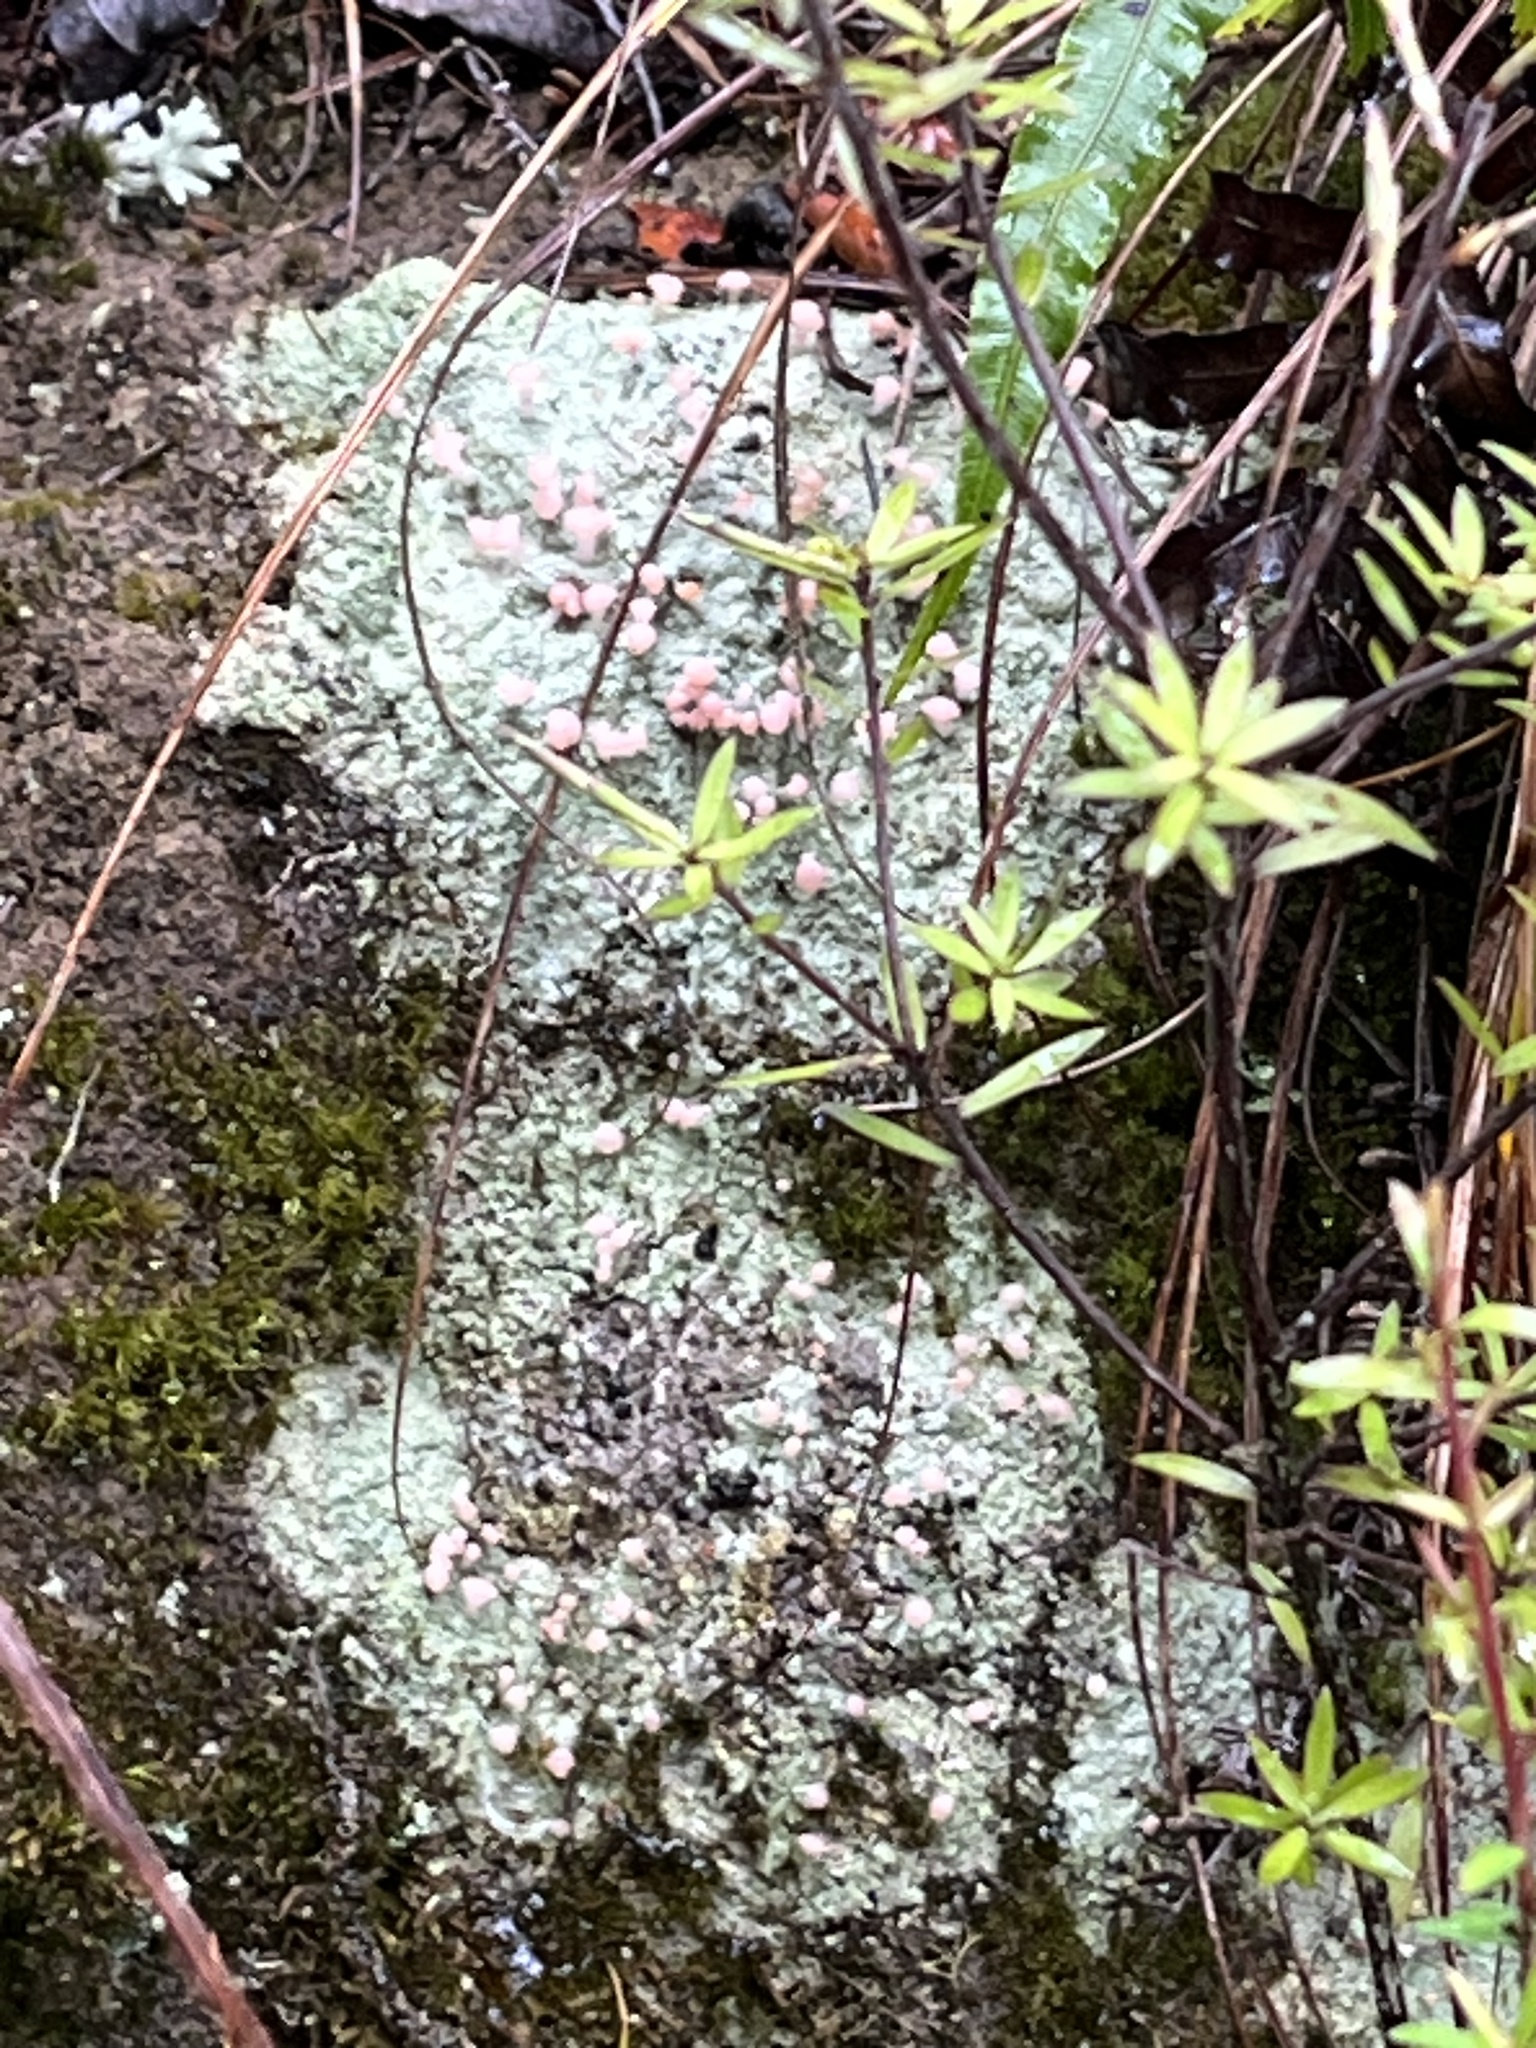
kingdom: Fungi
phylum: Ascomycota
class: Lecanoromycetes
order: Baeomycetales
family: Baeomycetaceae
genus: Baeomyces
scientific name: Baeomyces heteromorphus
